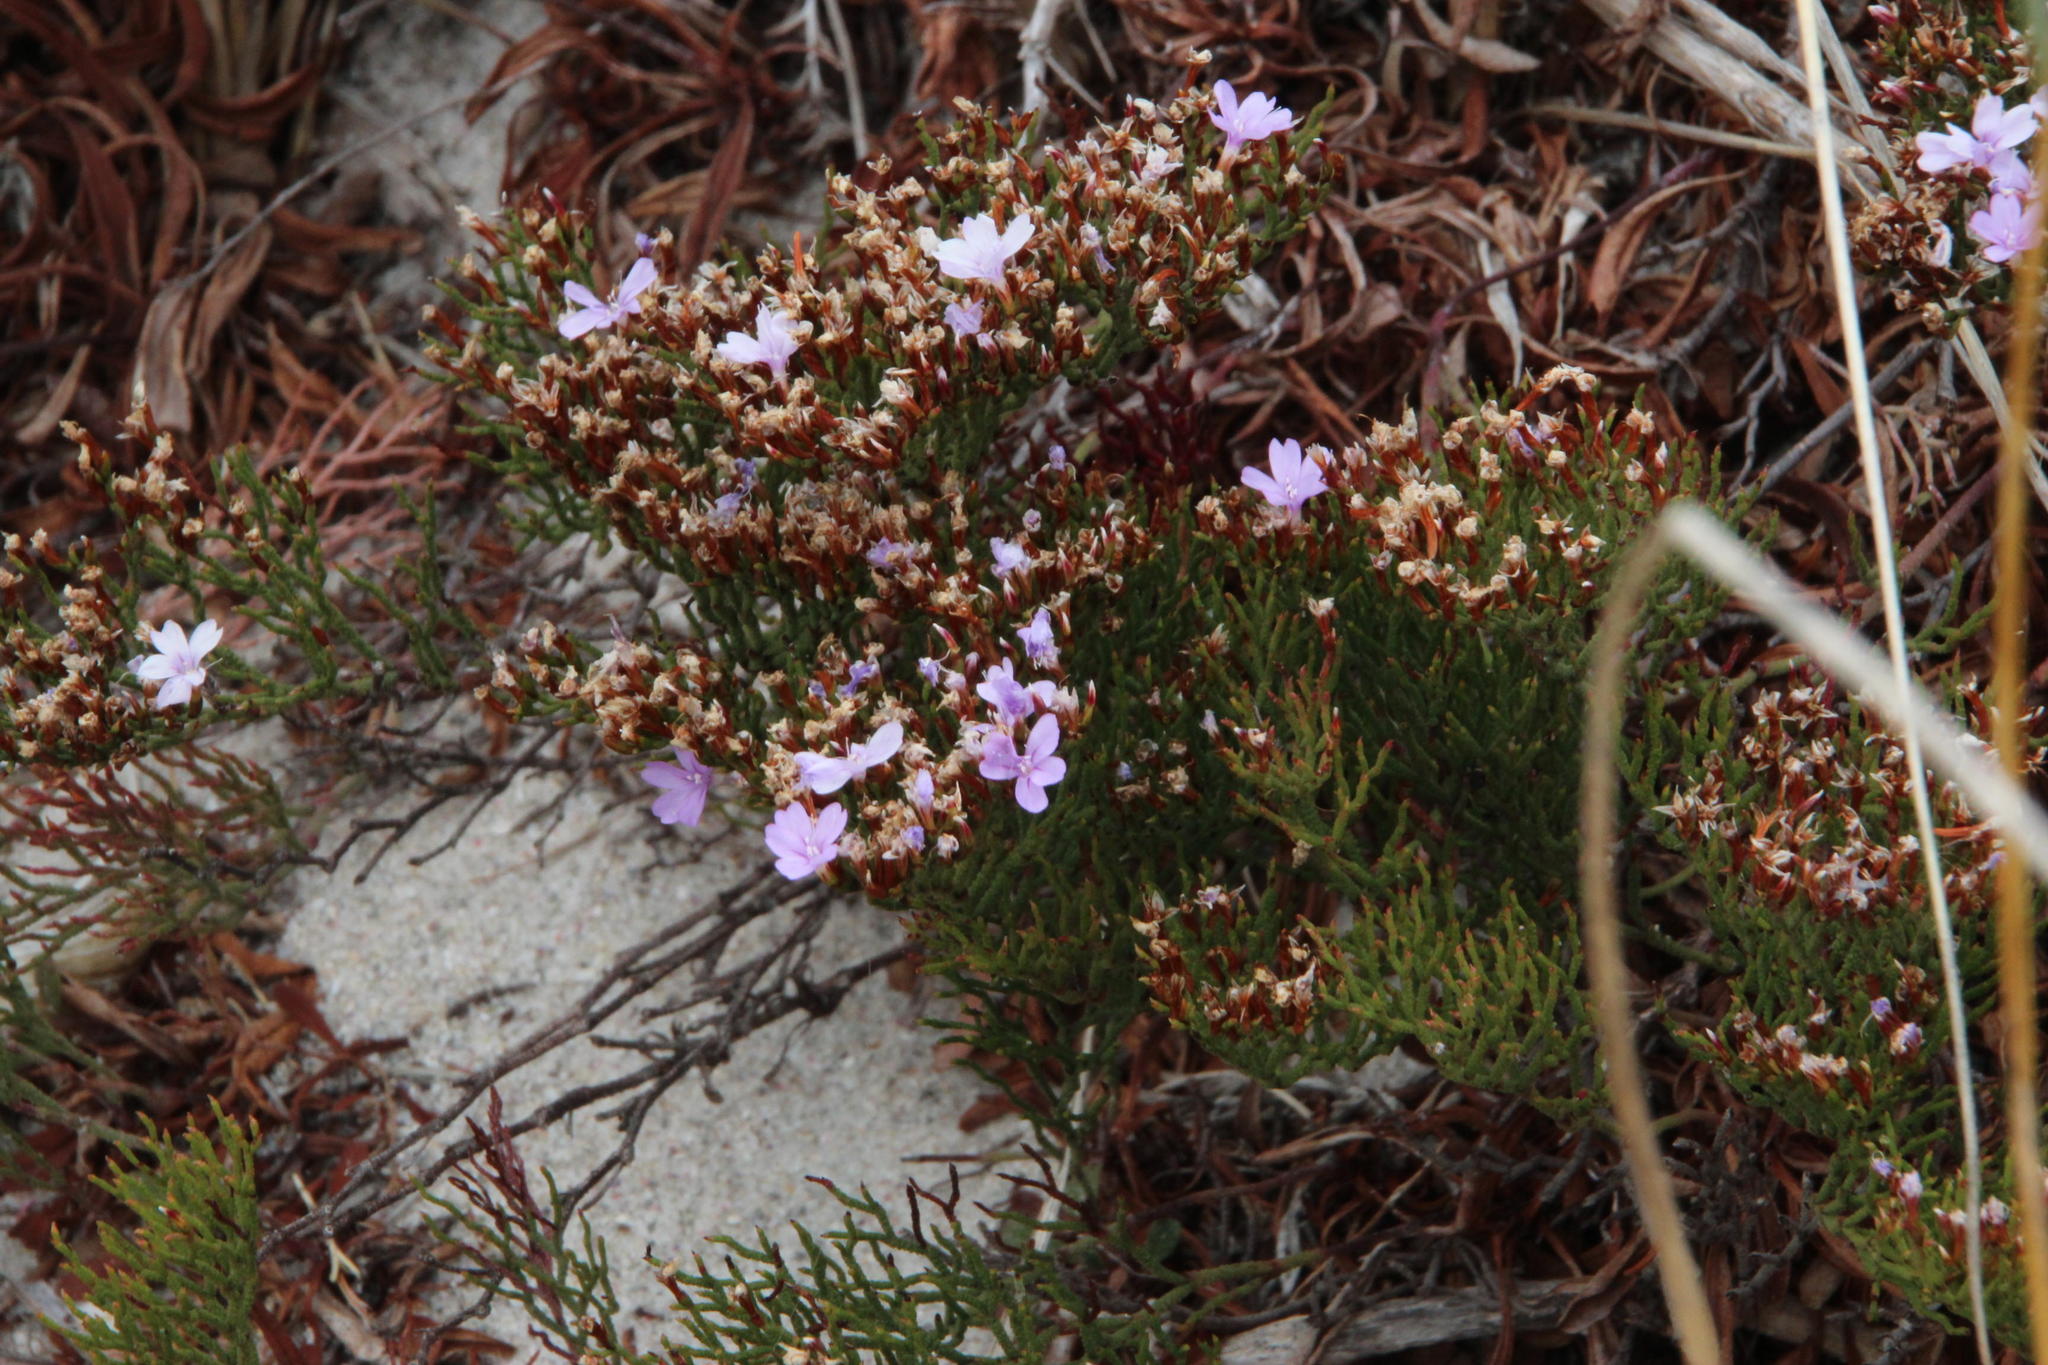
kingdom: Plantae
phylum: Tracheophyta
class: Magnoliopsida
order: Caryophyllales
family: Plumbaginaceae
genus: Limonium
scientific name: Limonium scabrum
